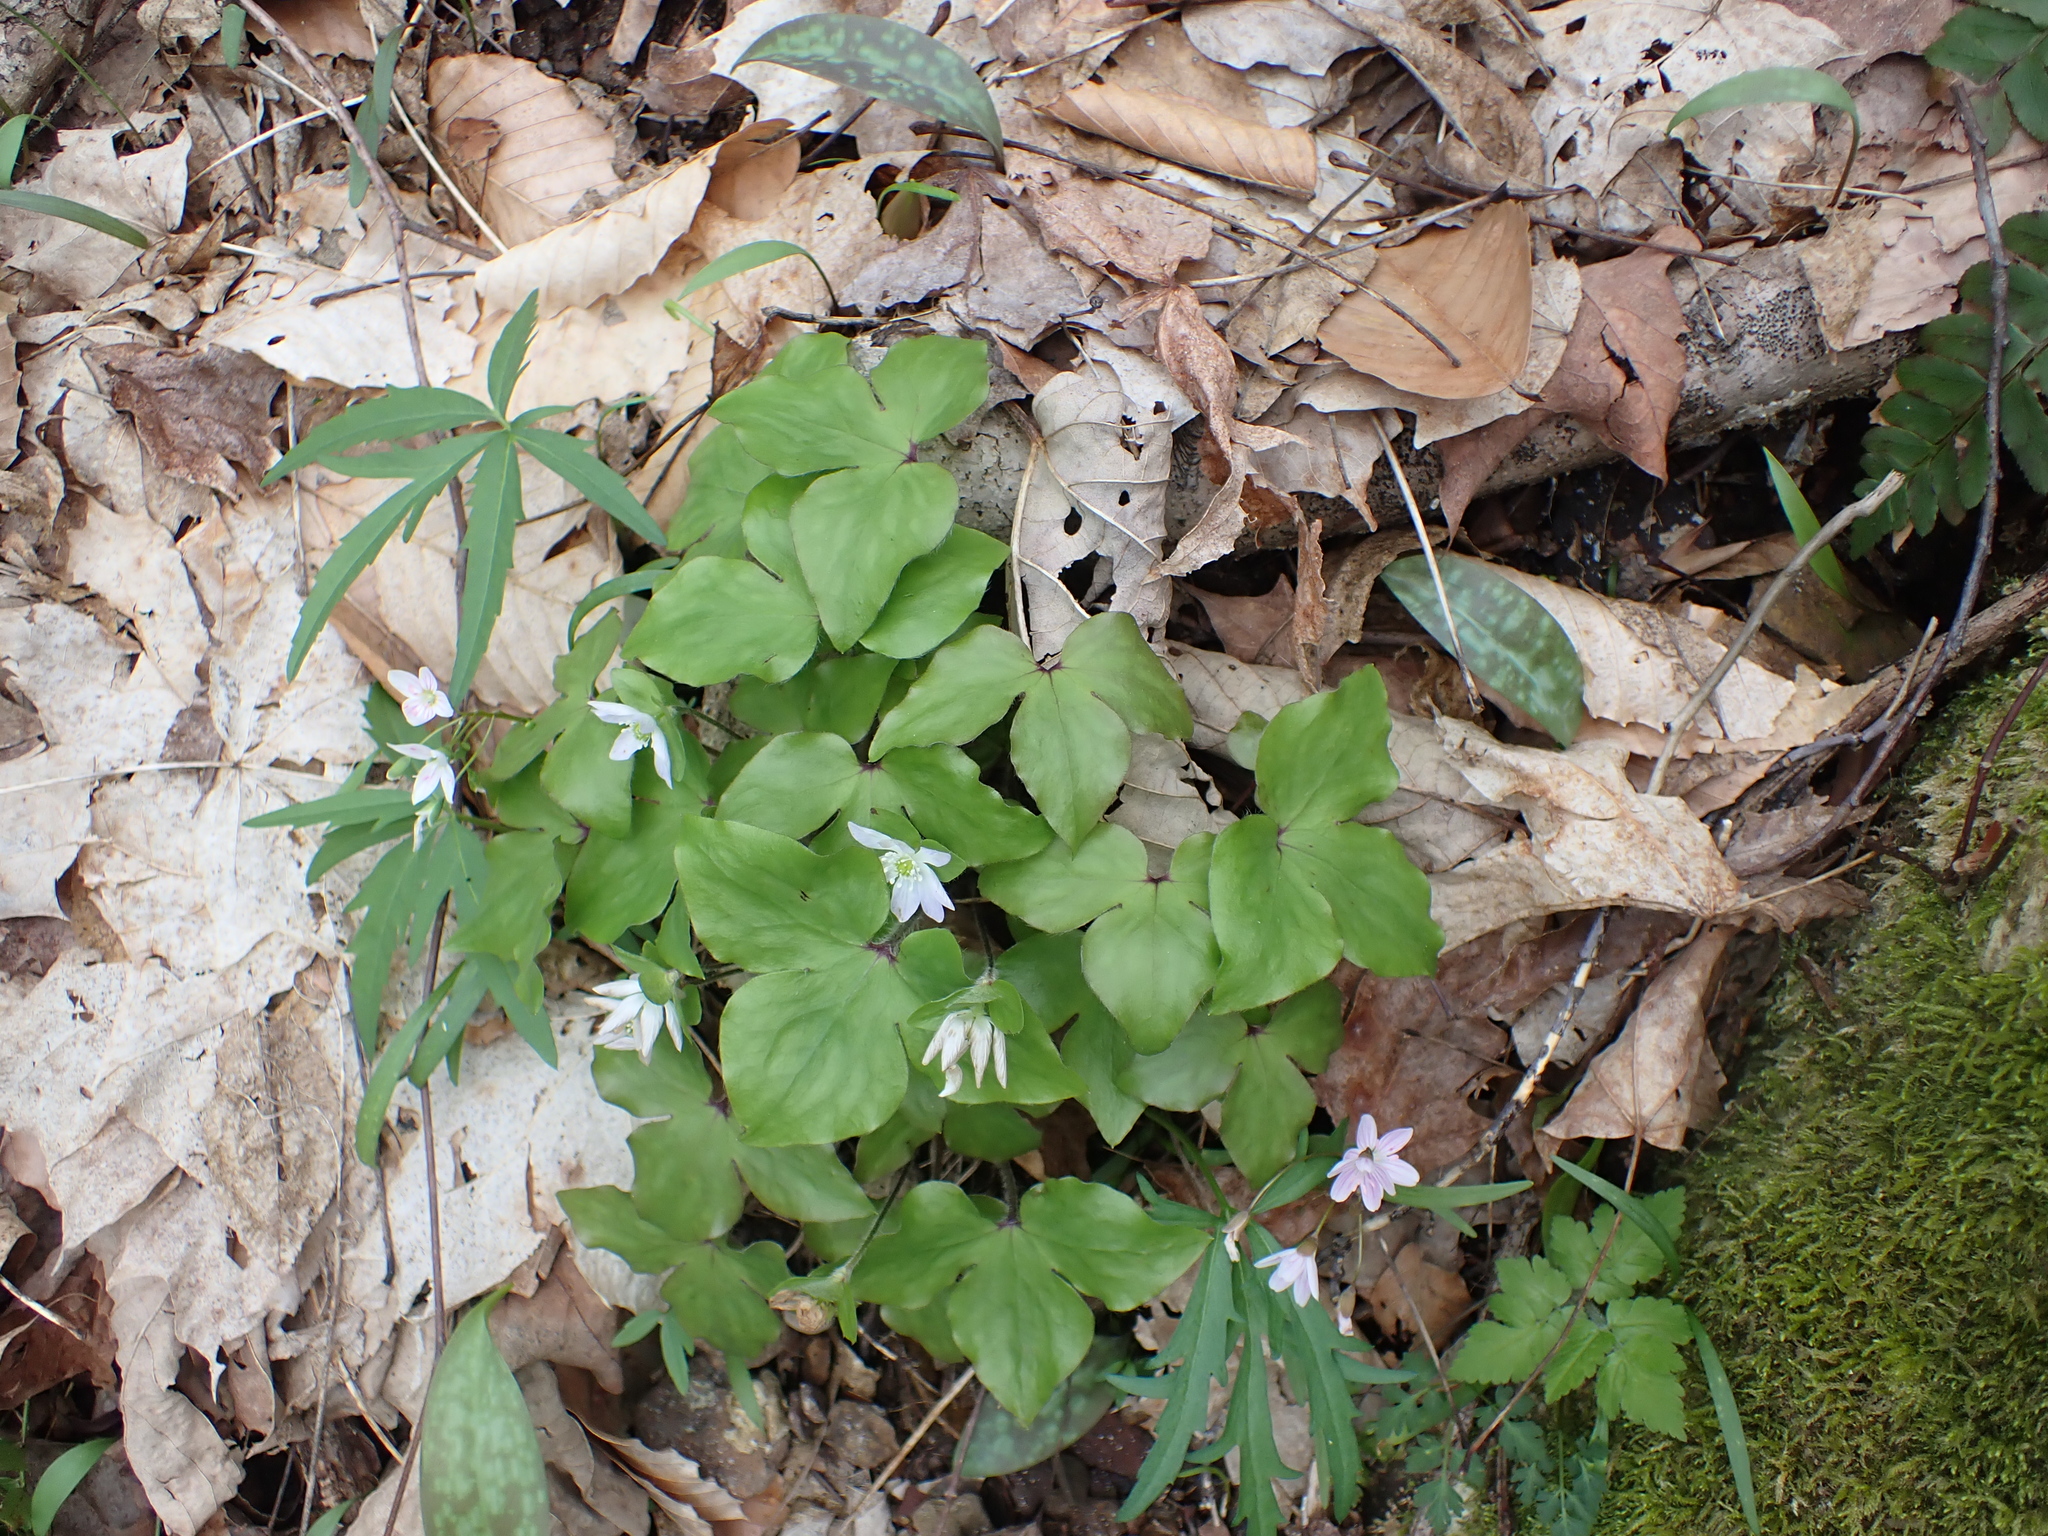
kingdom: Plantae
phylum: Tracheophyta
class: Magnoliopsida
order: Ranunculales
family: Ranunculaceae
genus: Hepatica
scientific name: Hepatica acutiloba
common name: Sharp-lobed hepatica
